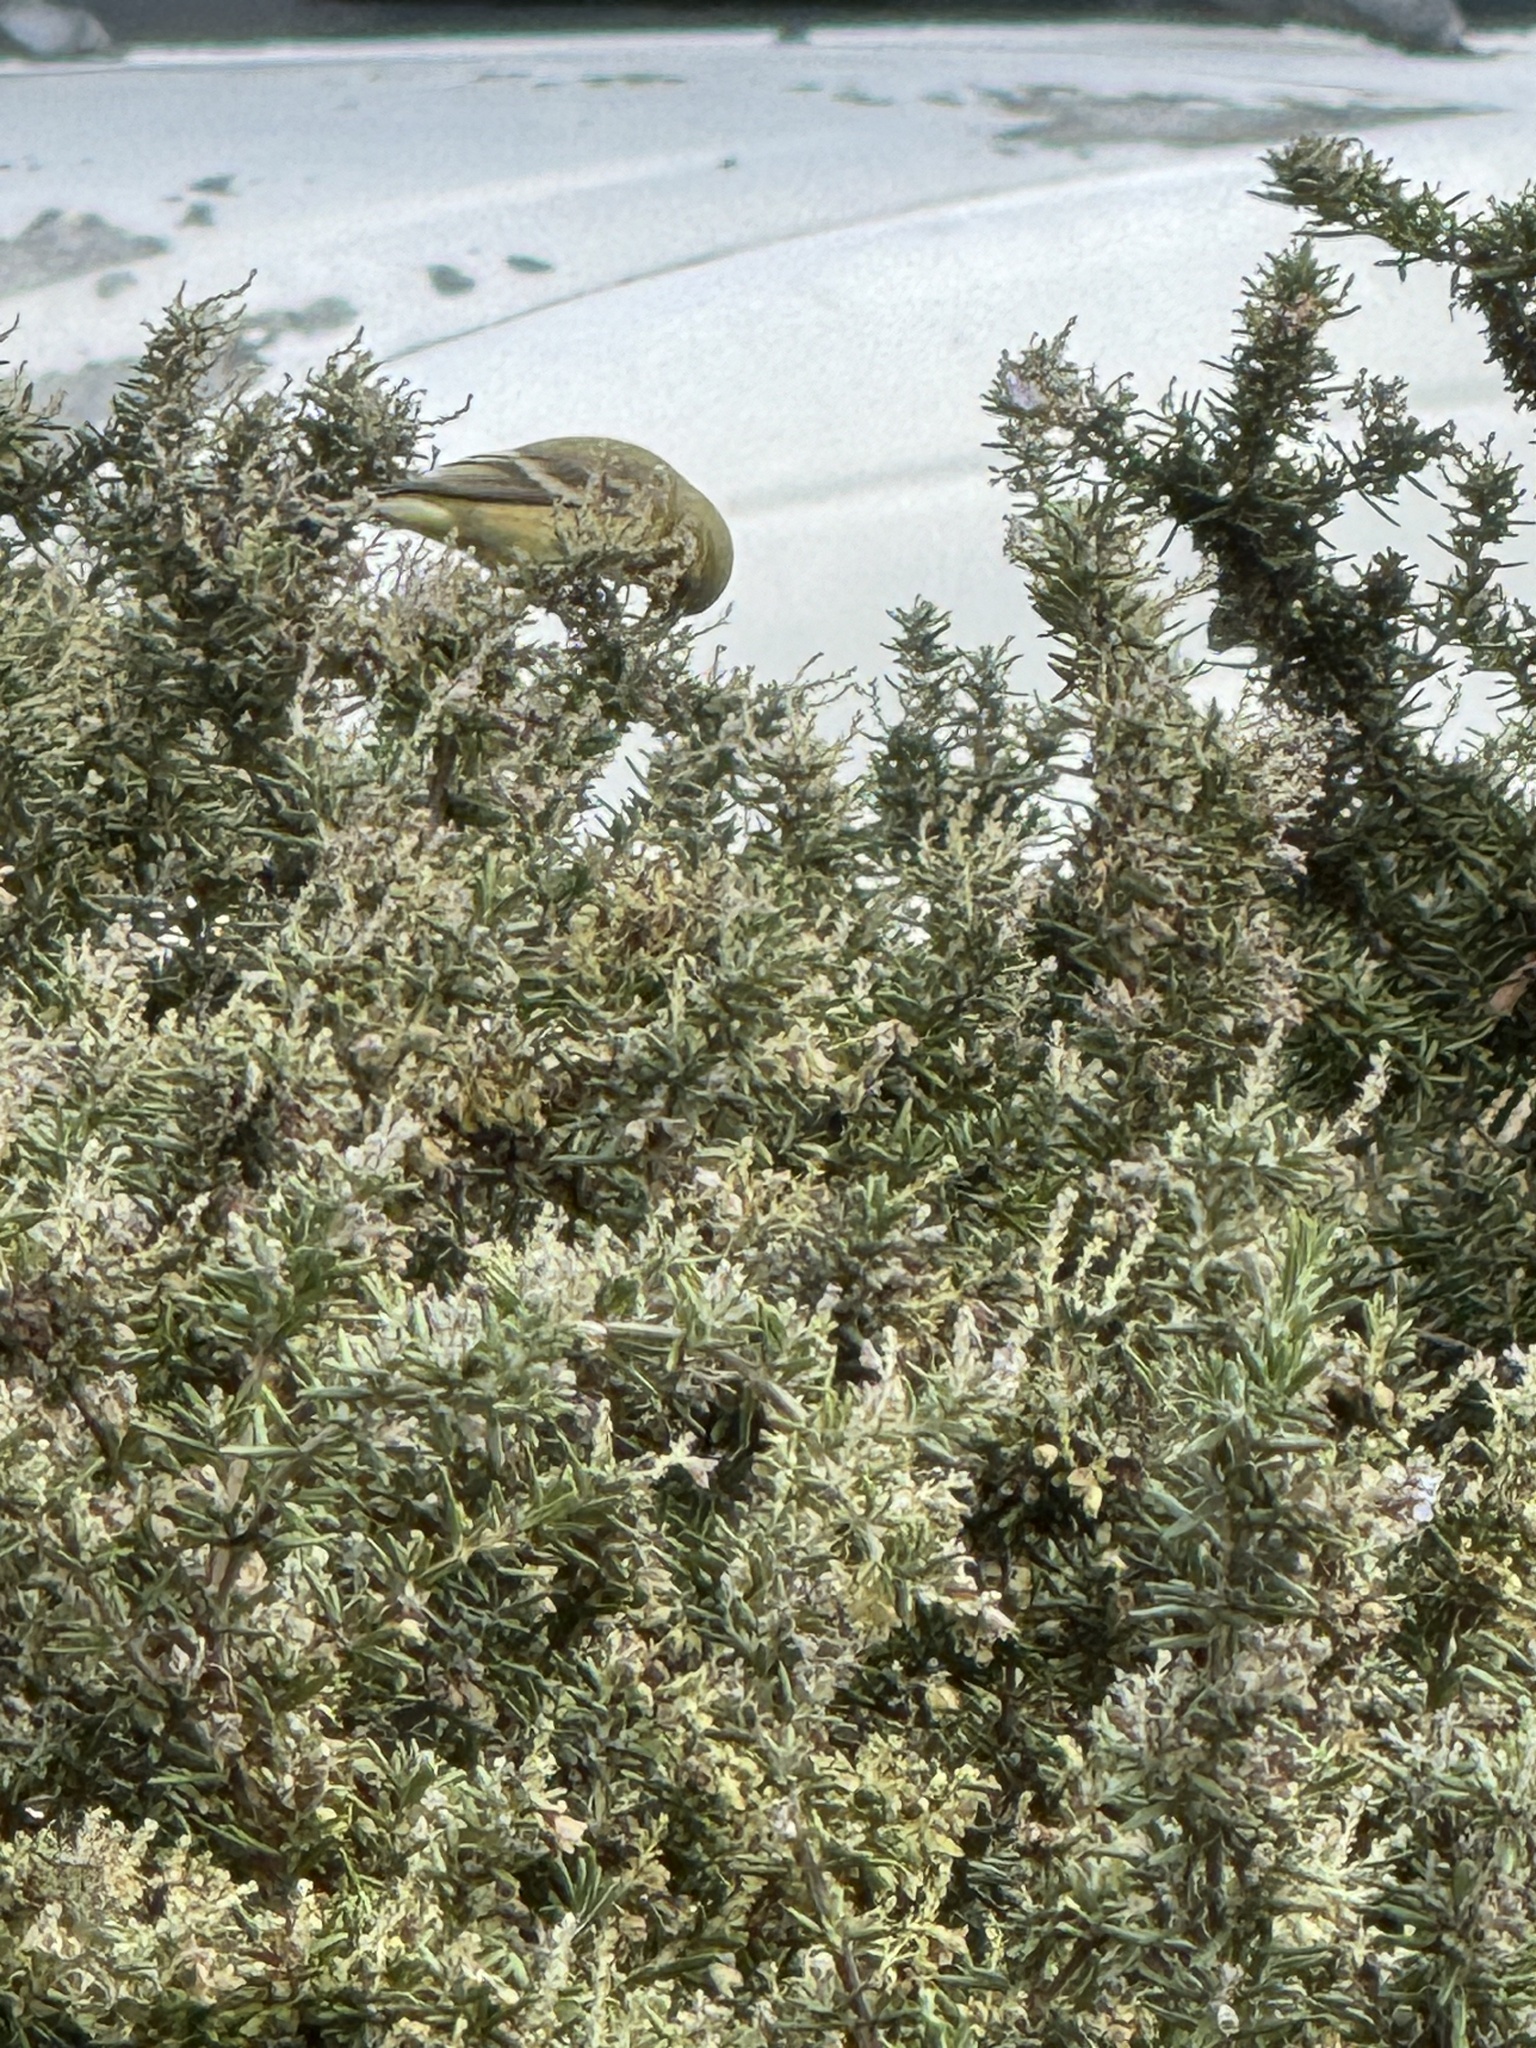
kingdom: Animalia
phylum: Chordata
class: Aves
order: Passeriformes
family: Fringillidae
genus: Spinus
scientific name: Spinus psaltria
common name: Lesser goldfinch
